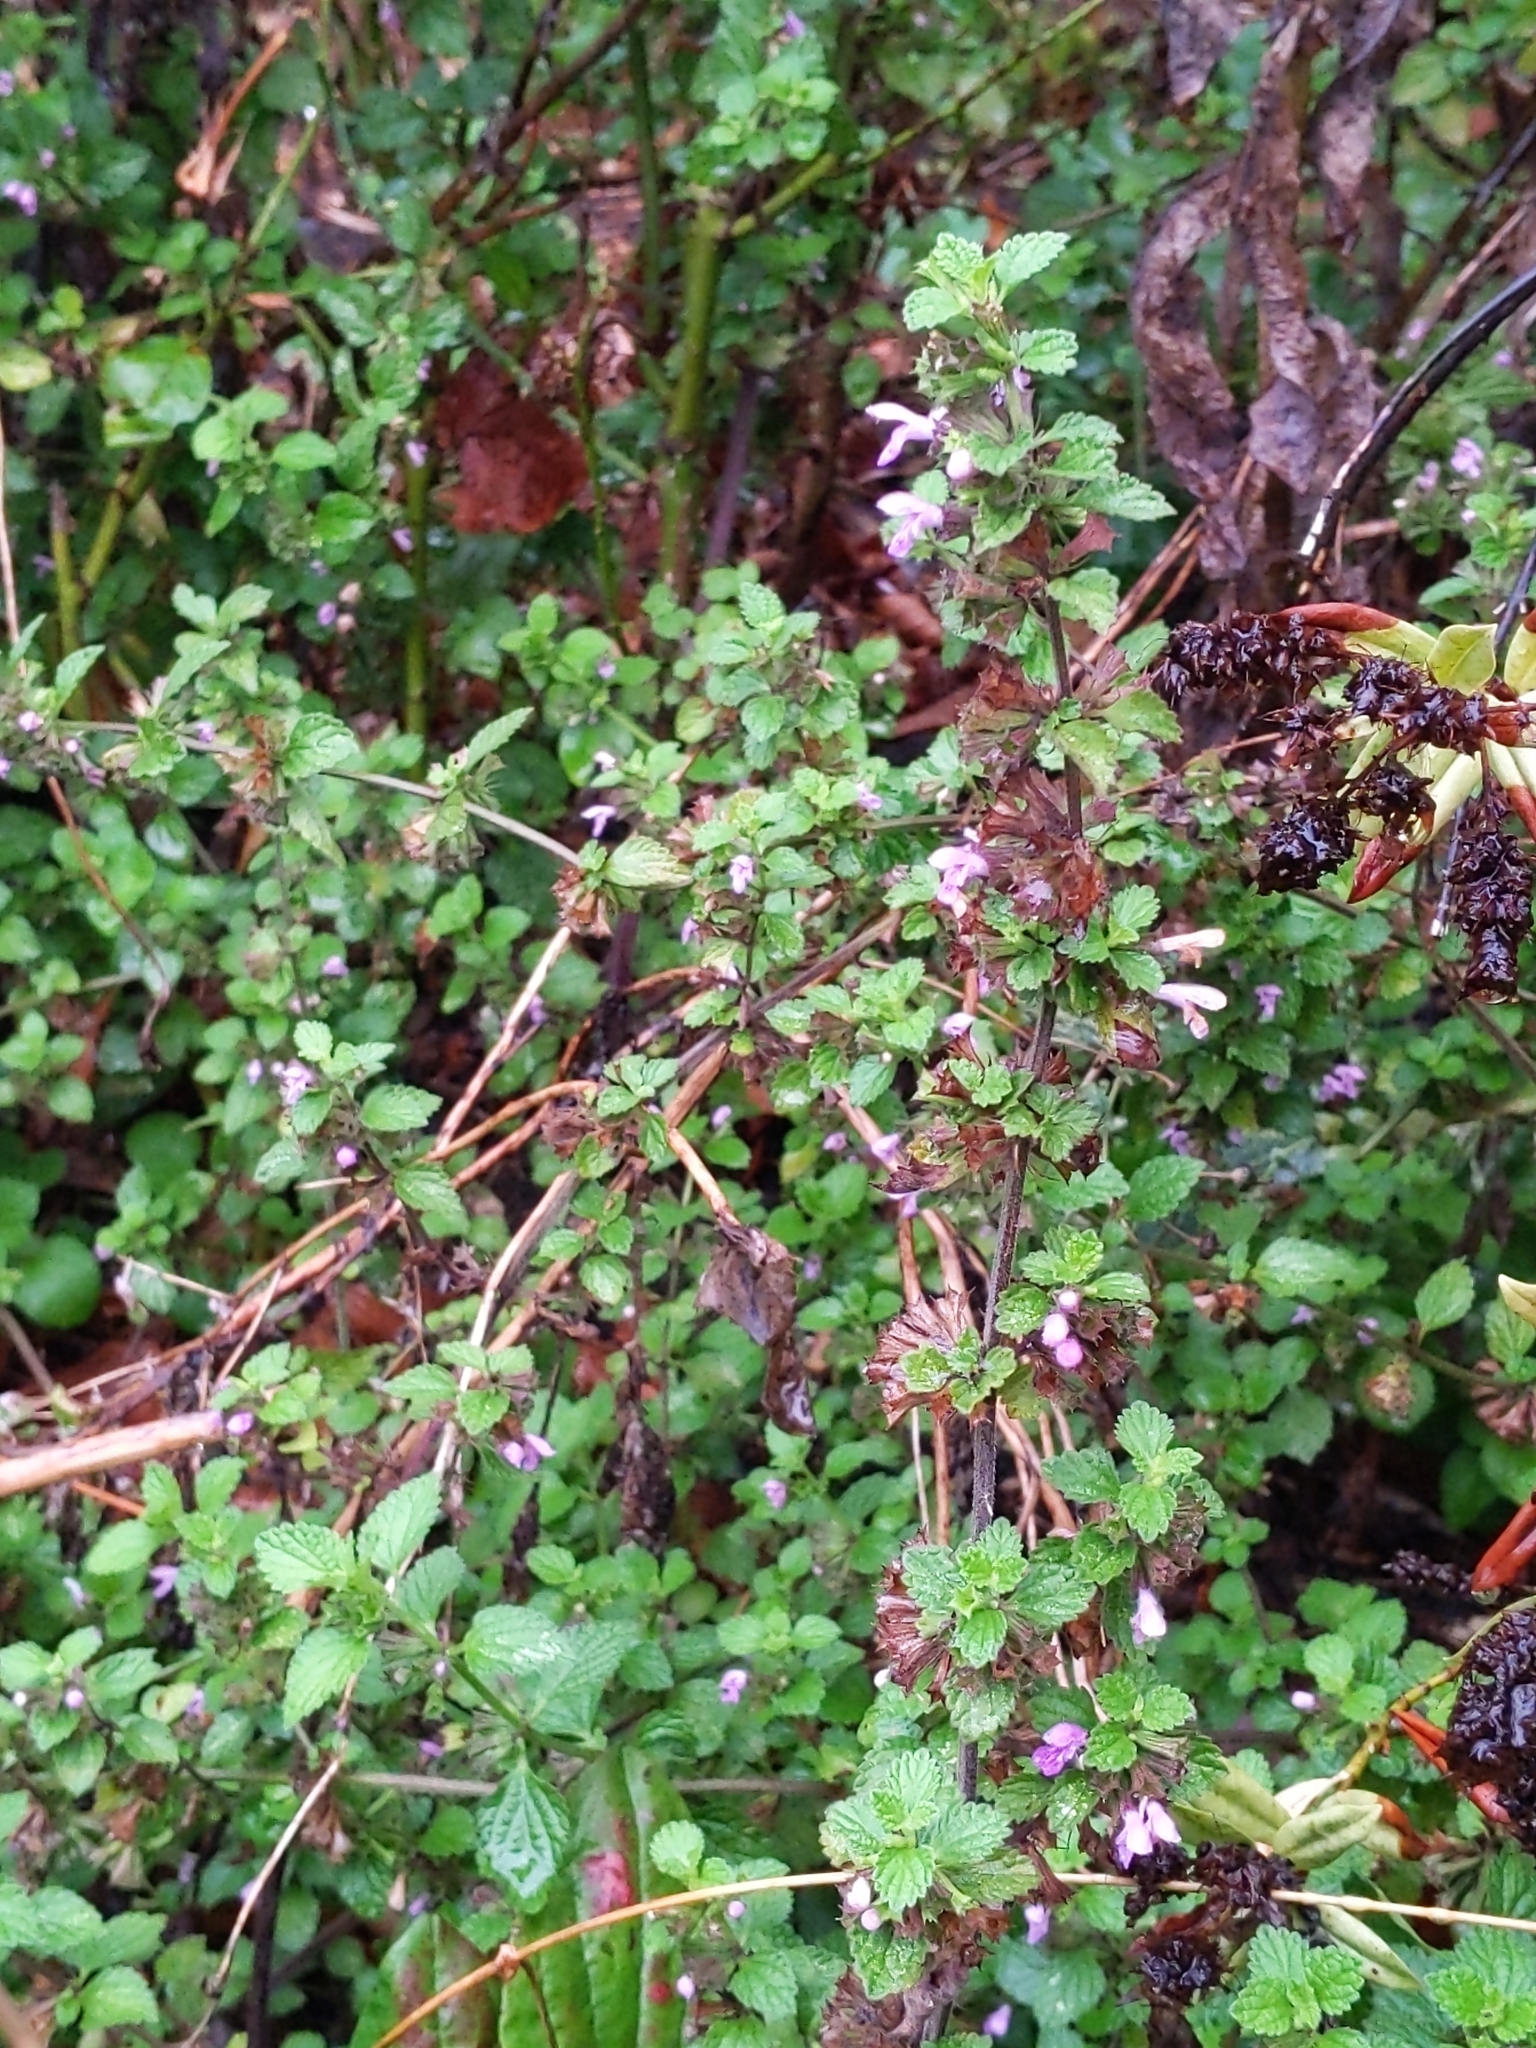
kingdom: Plantae
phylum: Tracheophyta
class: Magnoliopsida
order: Lamiales
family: Lamiaceae
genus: Ballota
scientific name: Ballota nigra
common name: Black horehound
